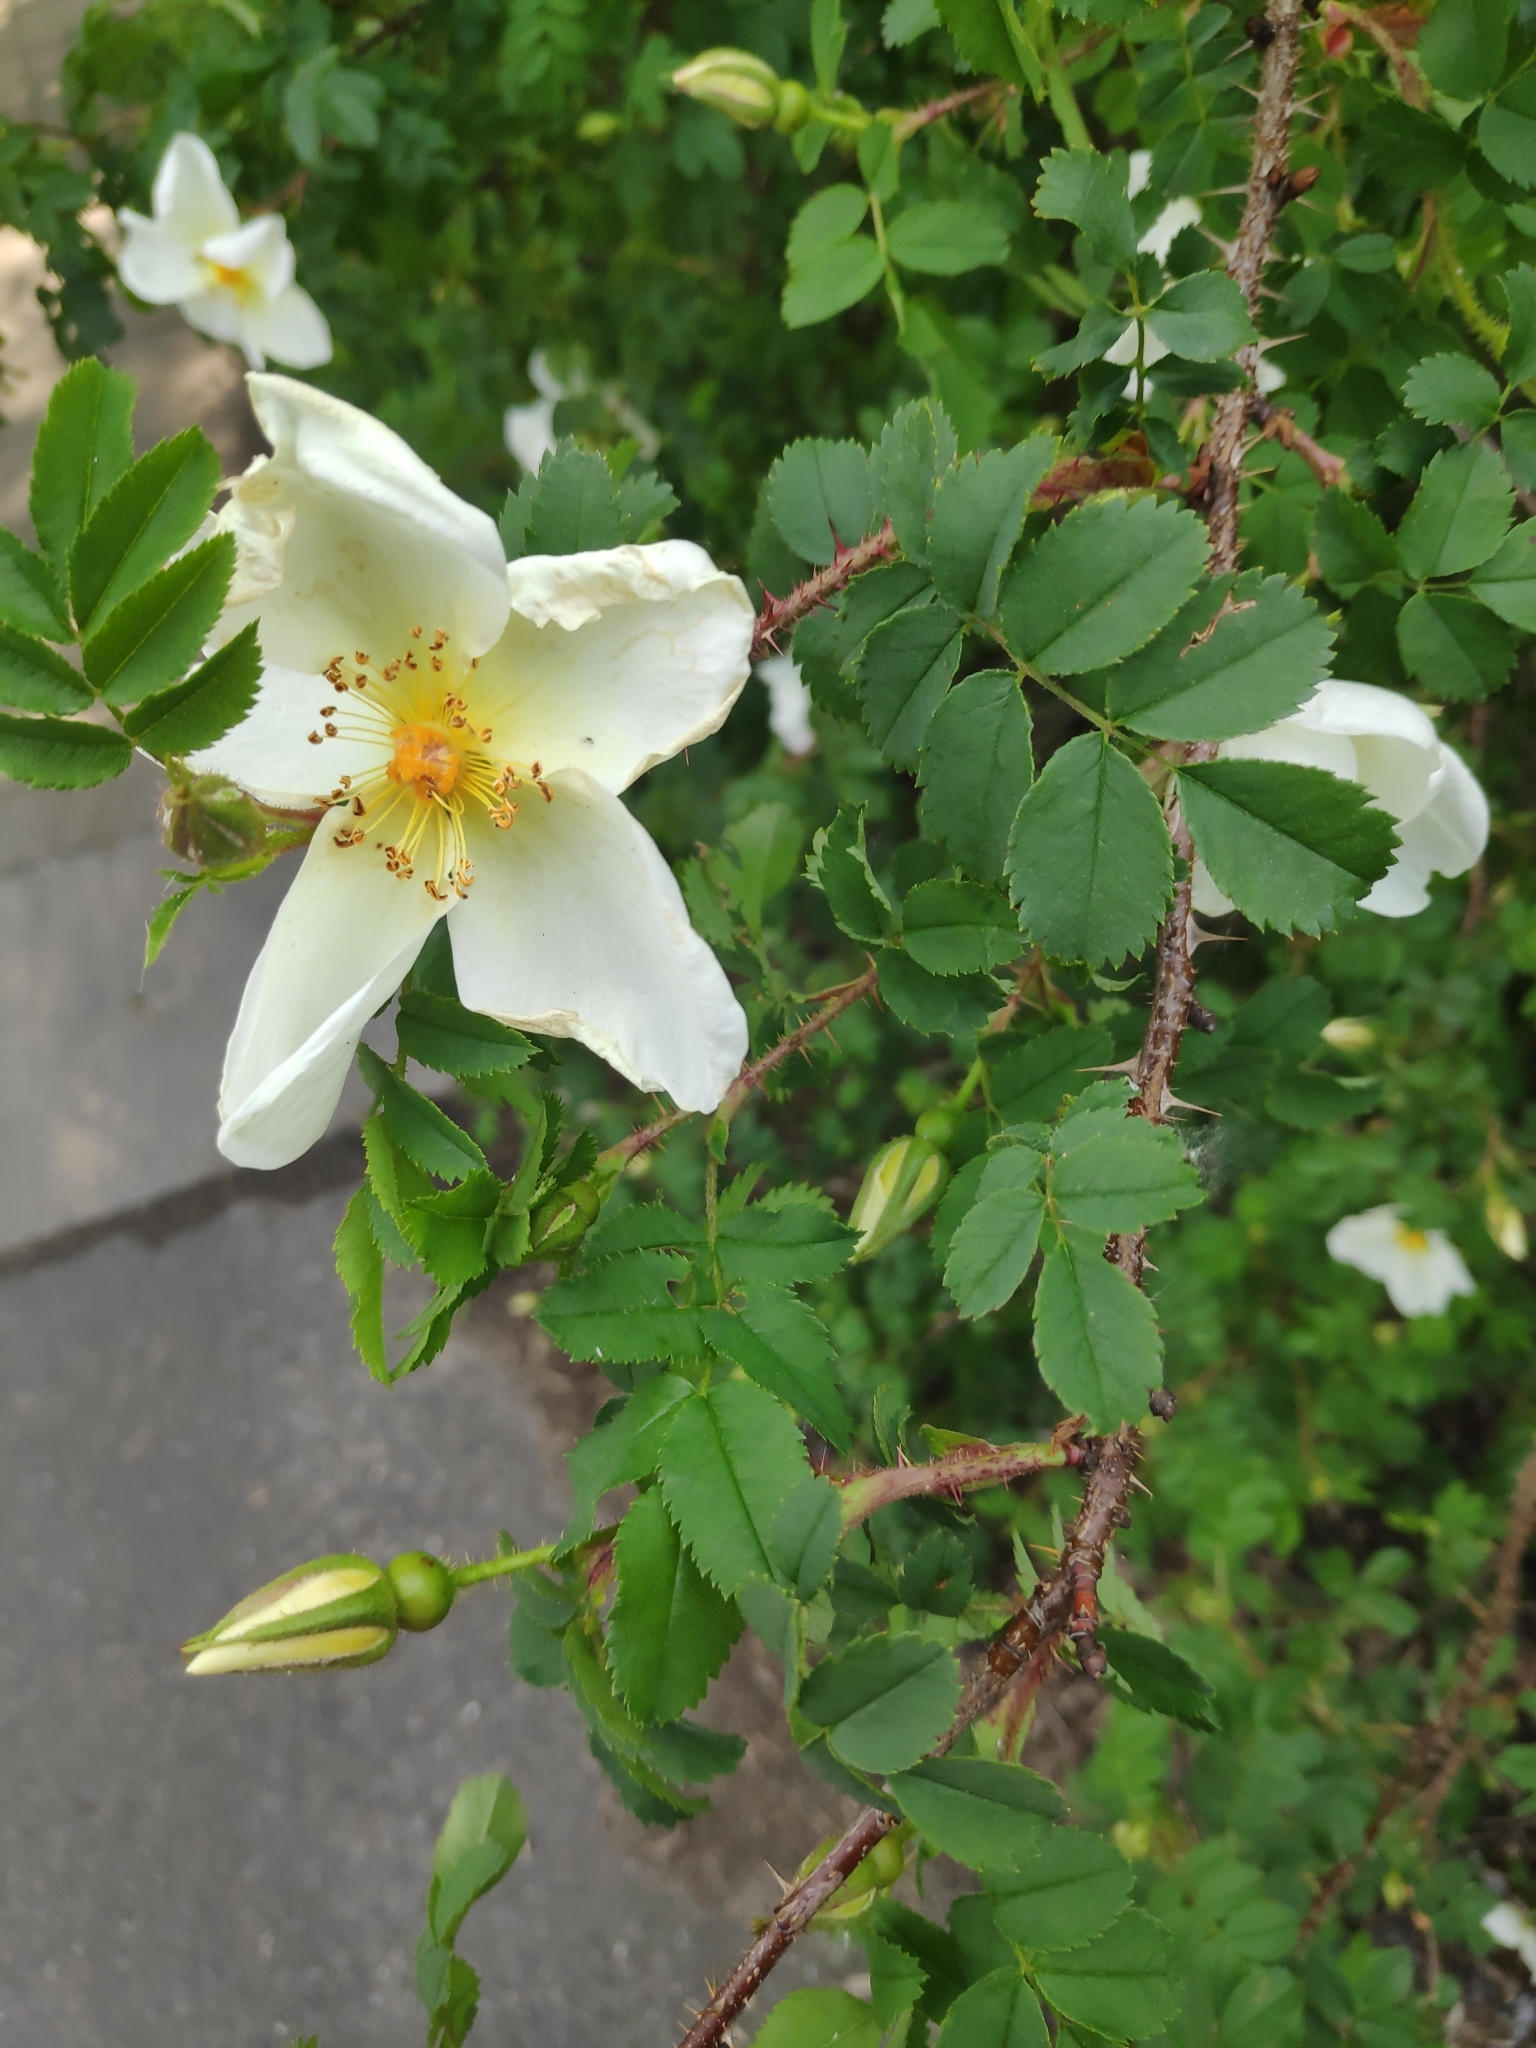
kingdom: Plantae
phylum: Tracheophyta
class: Magnoliopsida
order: Rosales
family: Rosaceae
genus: Rosa
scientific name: Rosa spinosissima
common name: Burnet rose
